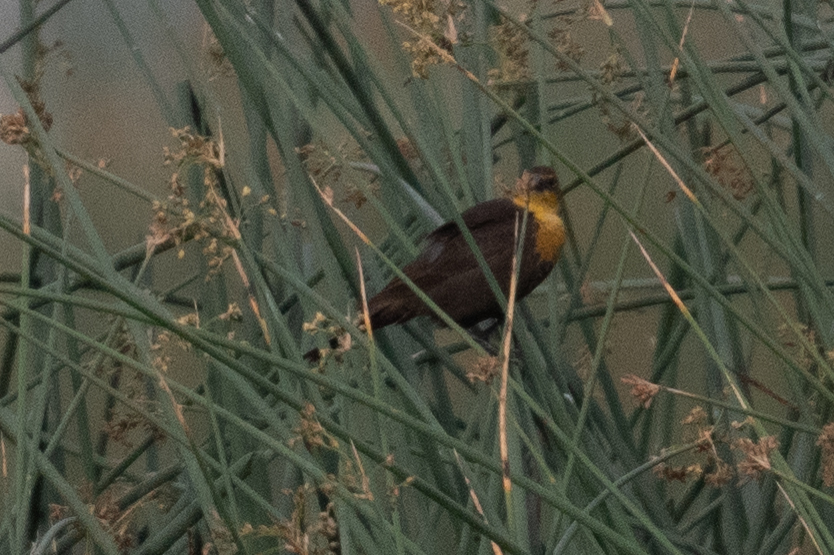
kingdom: Animalia
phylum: Chordata
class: Aves
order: Passeriformes
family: Icteridae
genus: Xanthocephalus
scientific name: Xanthocephalus xanthocephalus
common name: Yellow-headed blackbird
